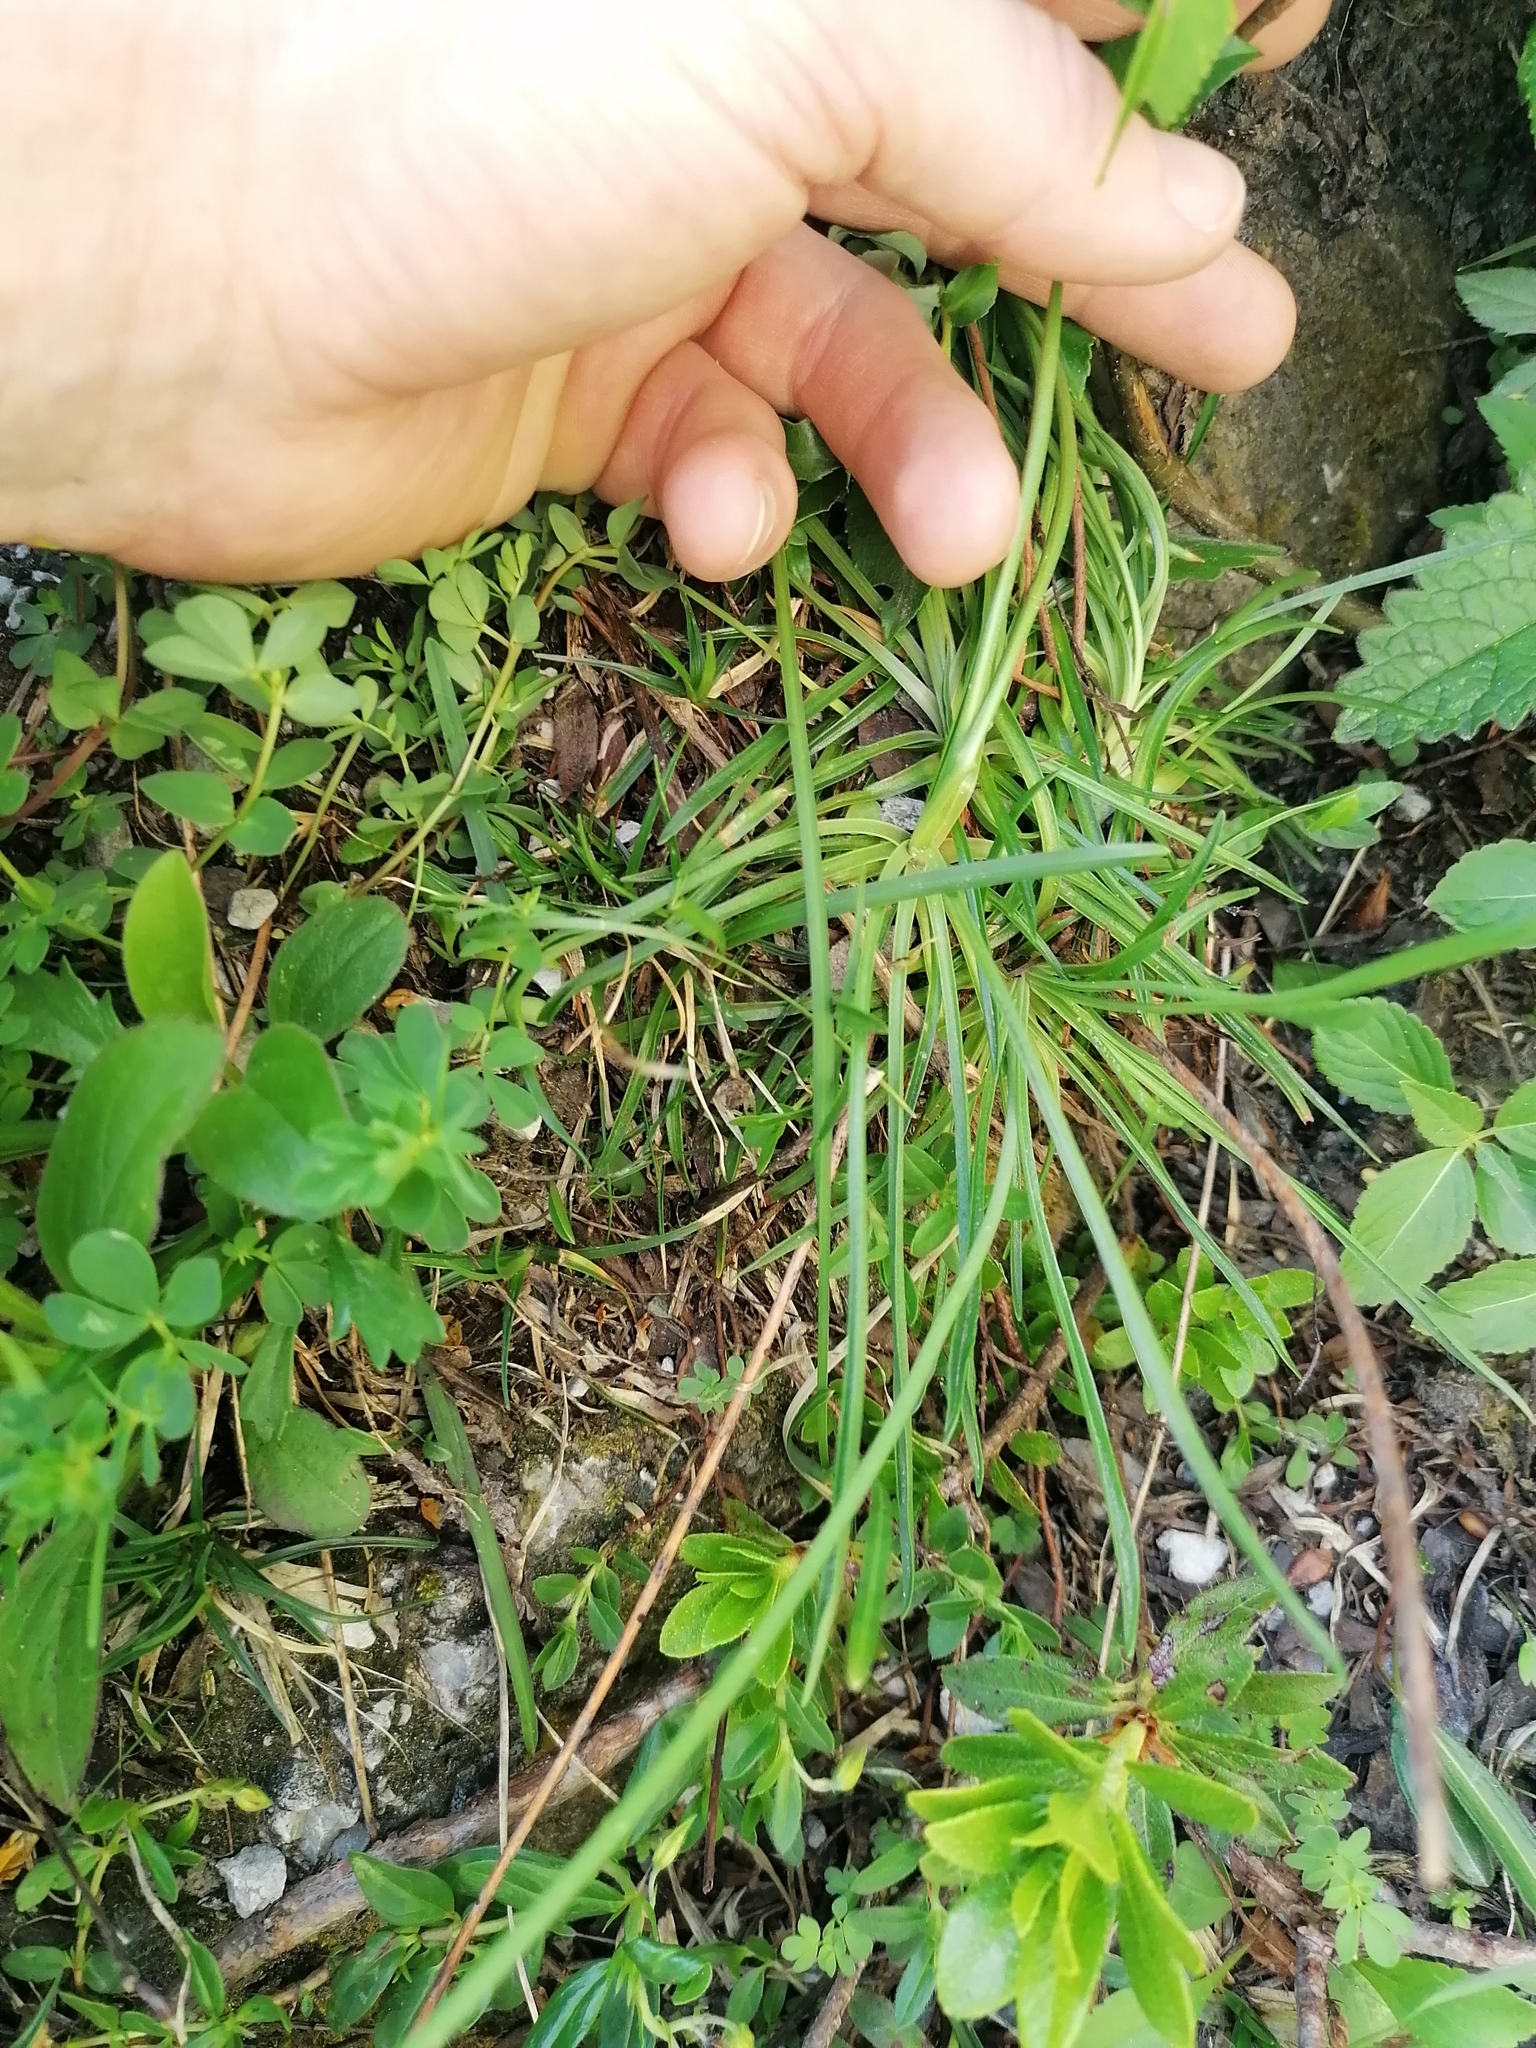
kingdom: Plantae
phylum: Tracheophyta
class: Magnoliopsida
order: Caryophyllales
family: Plumbaginaceae
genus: Armeria
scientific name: Armeria alpina
